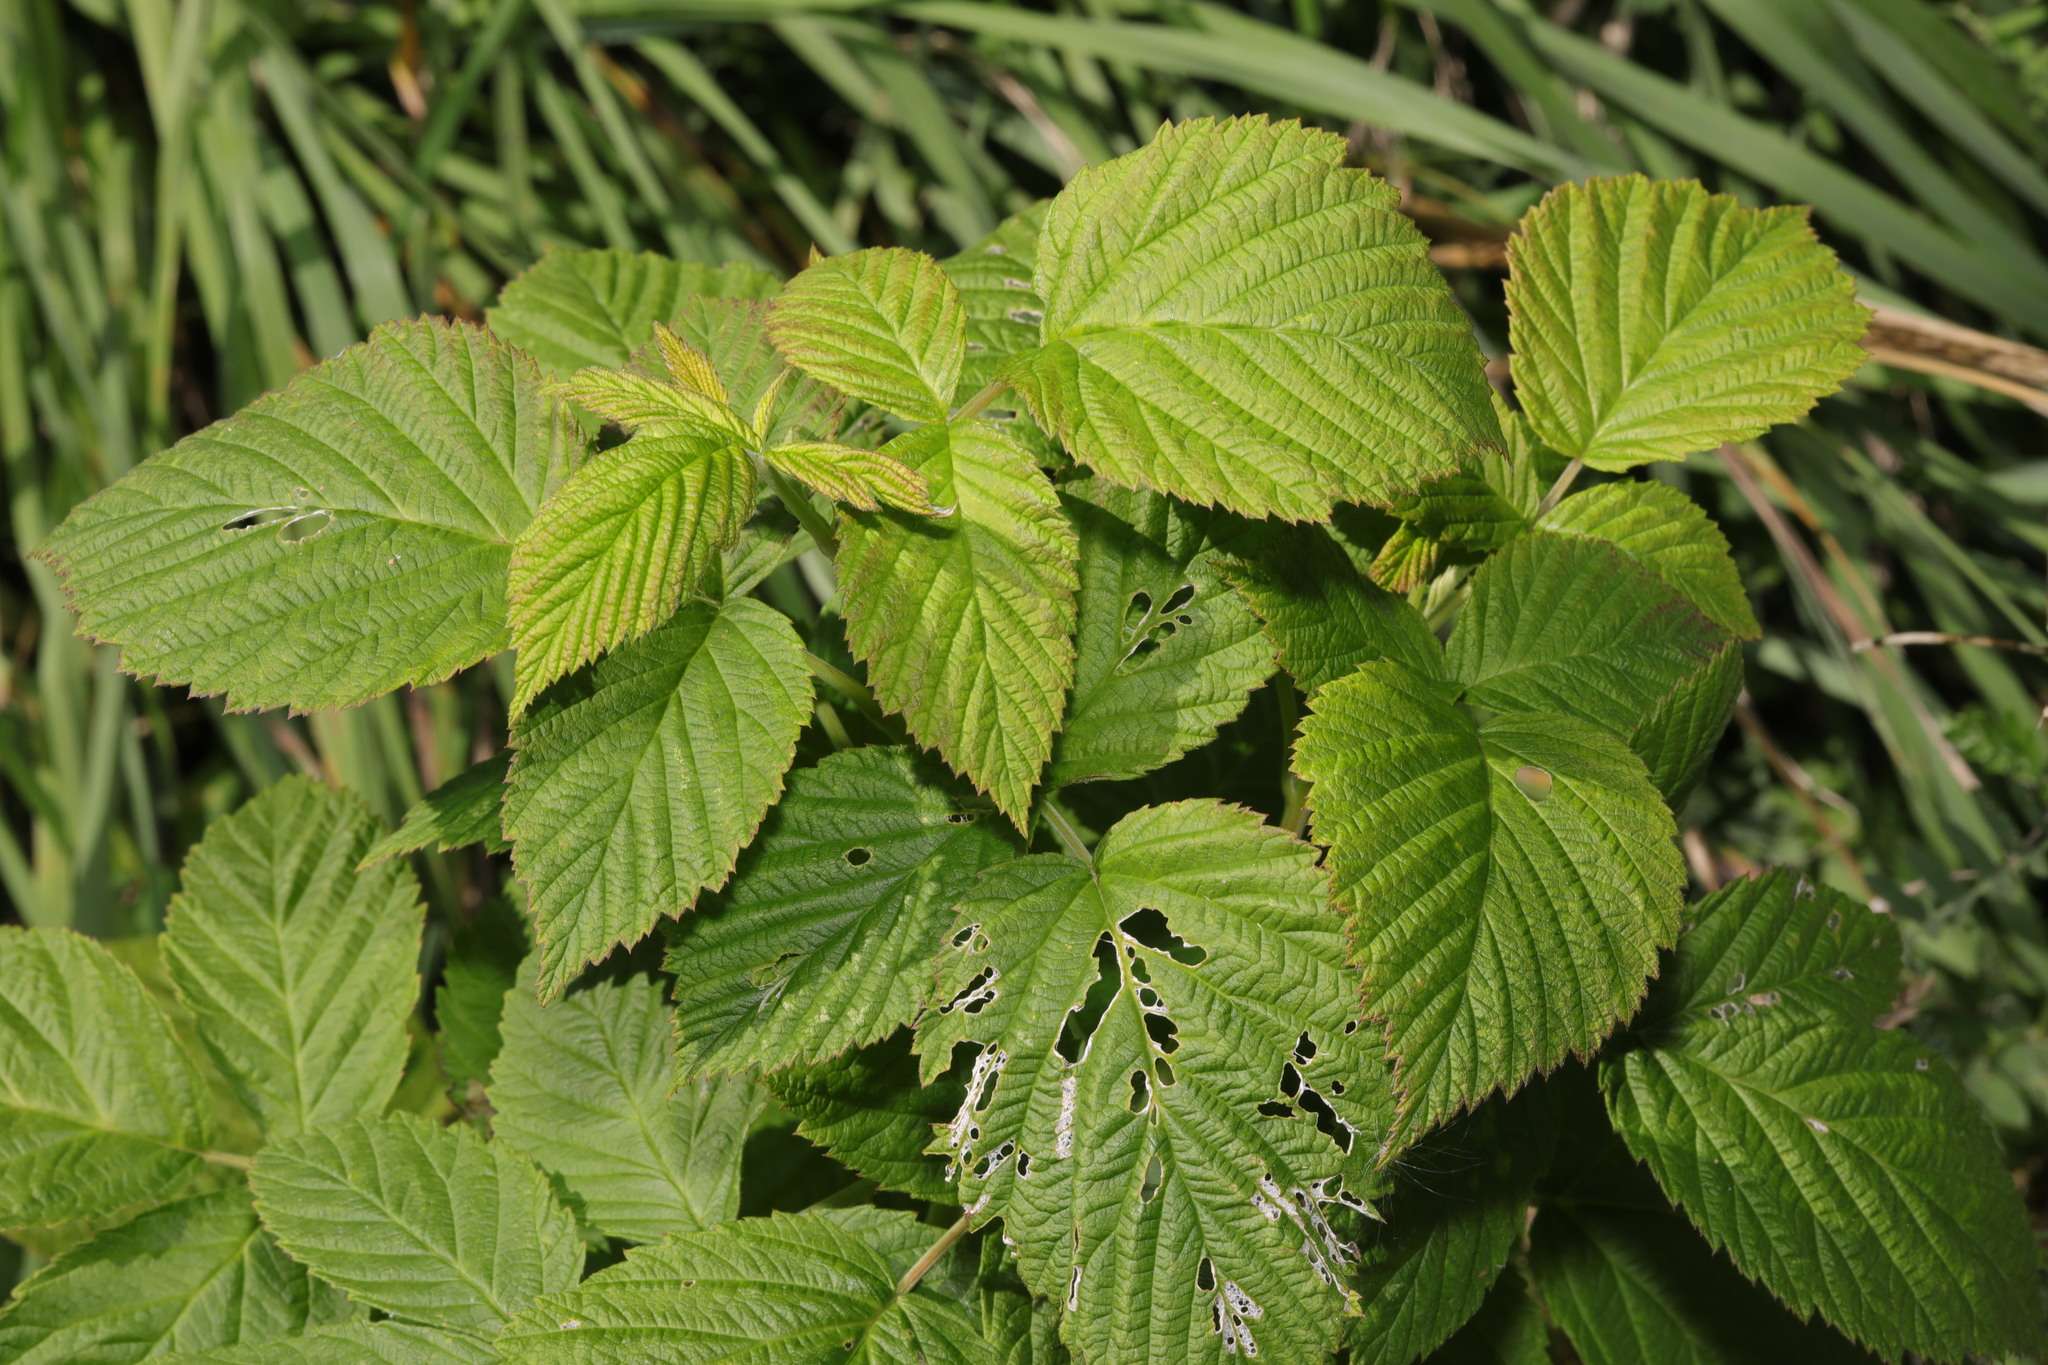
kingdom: Plantae
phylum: Tracheophyta
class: Magnoliopsida
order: Rosales
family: Rosaceae
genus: Rubus
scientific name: Rubus idaeus
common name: Raspberry
